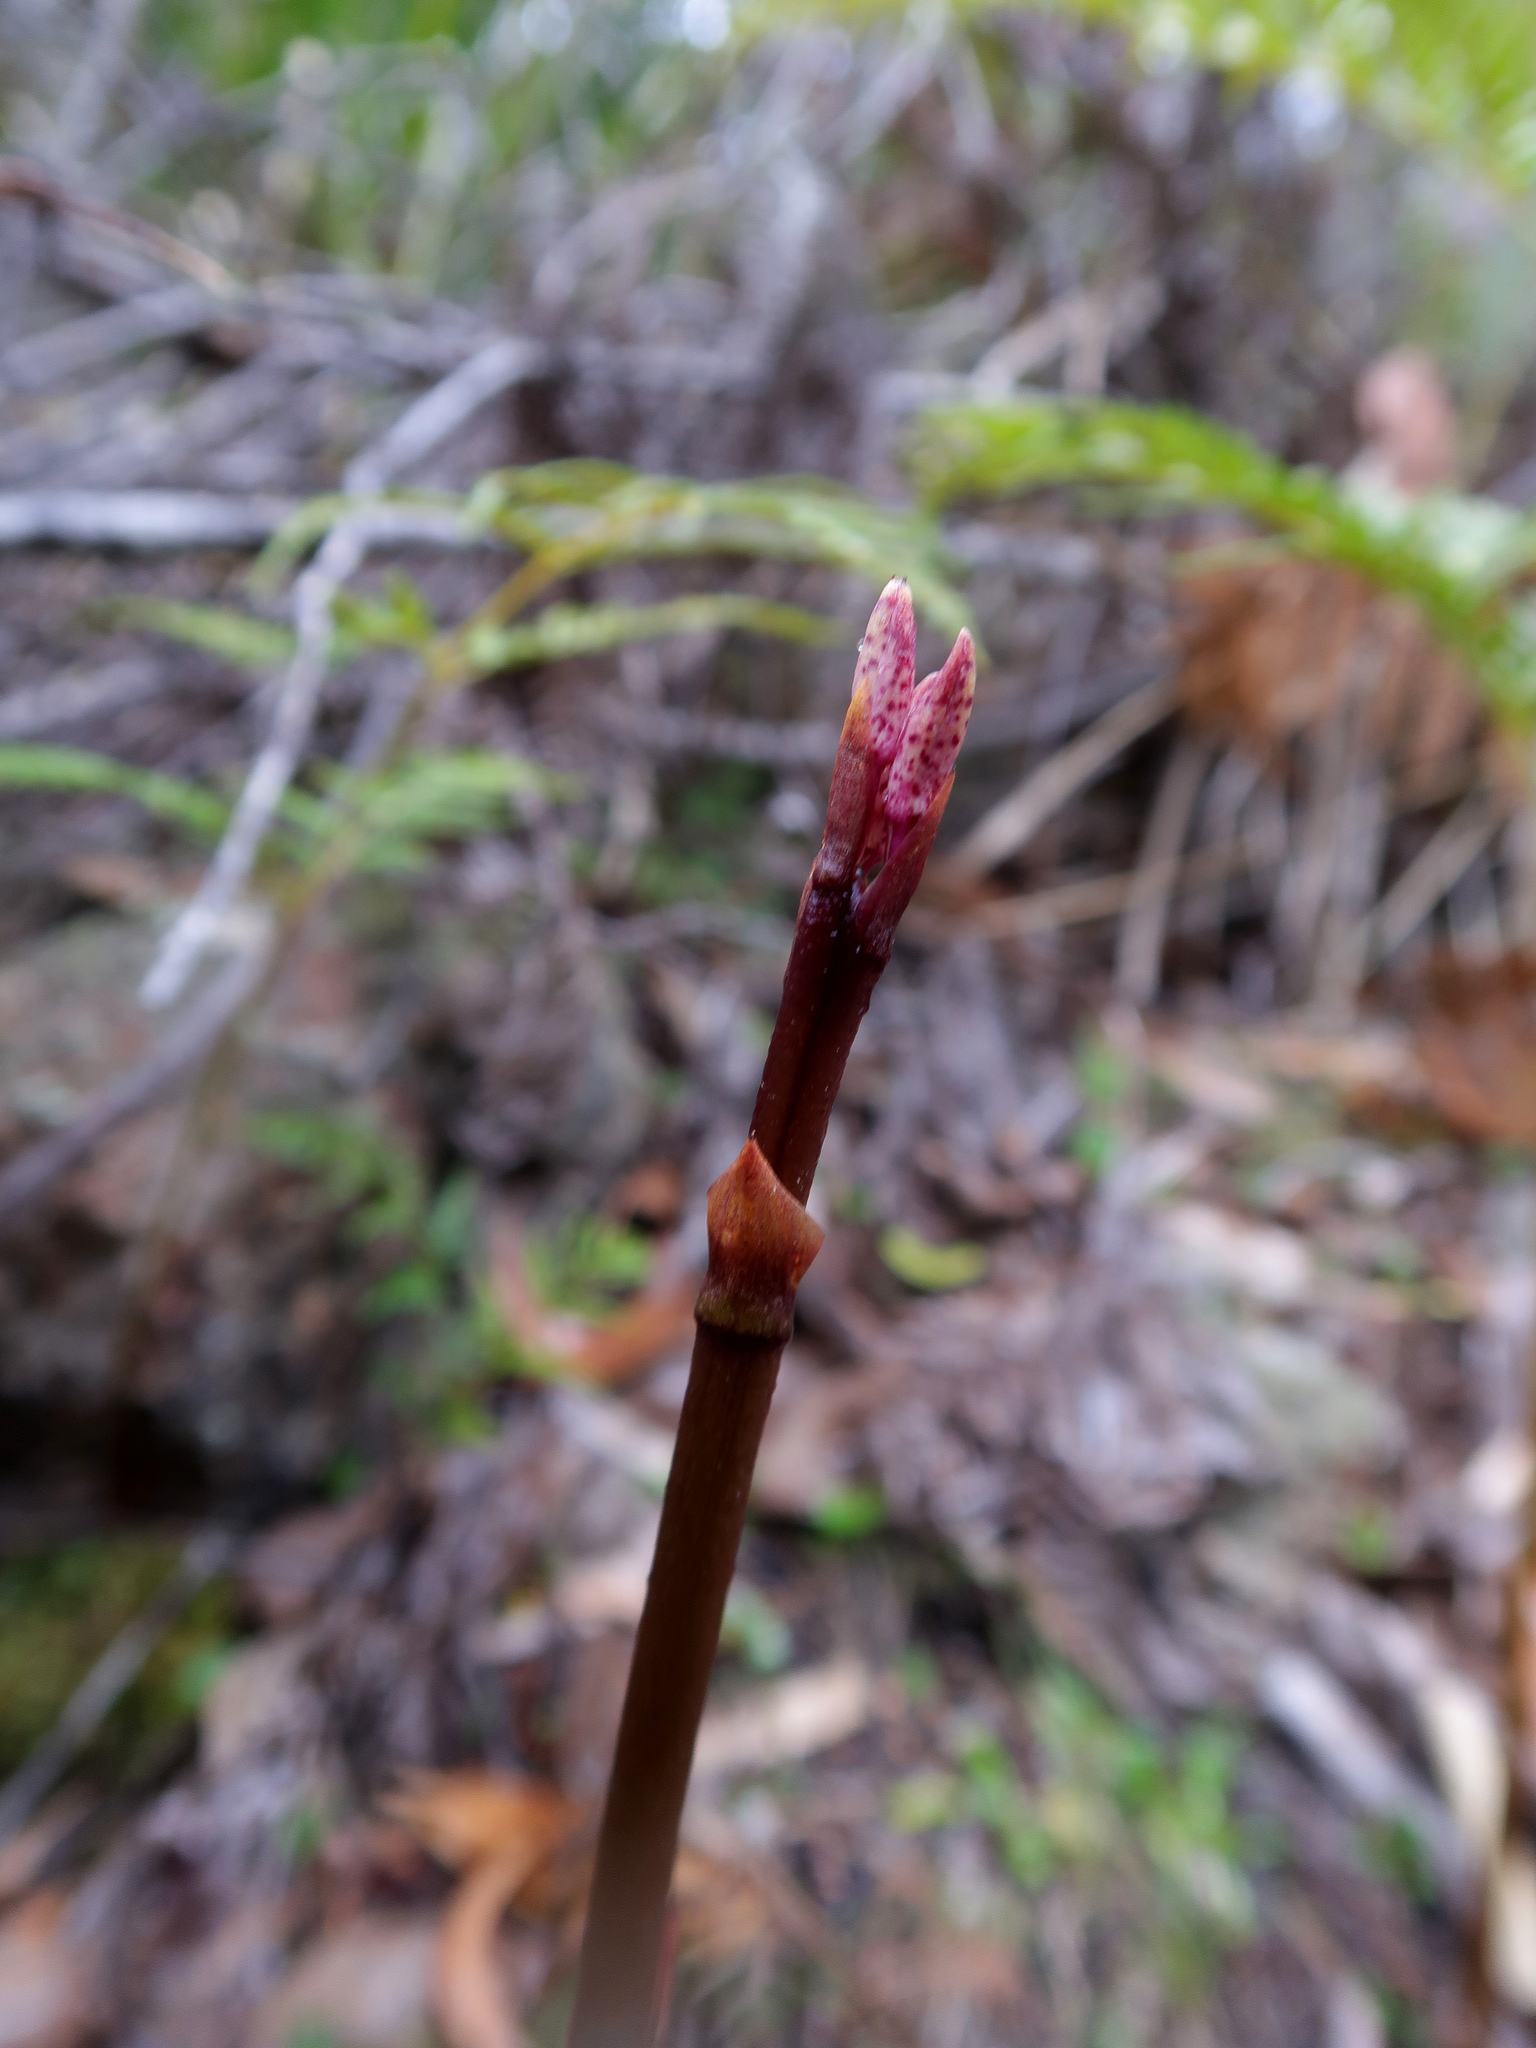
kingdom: Plantae
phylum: Tracheophyta
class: Liliopsida
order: Asparagales
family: Orchidaceae
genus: Dipodium
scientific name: Dipodium roseum
